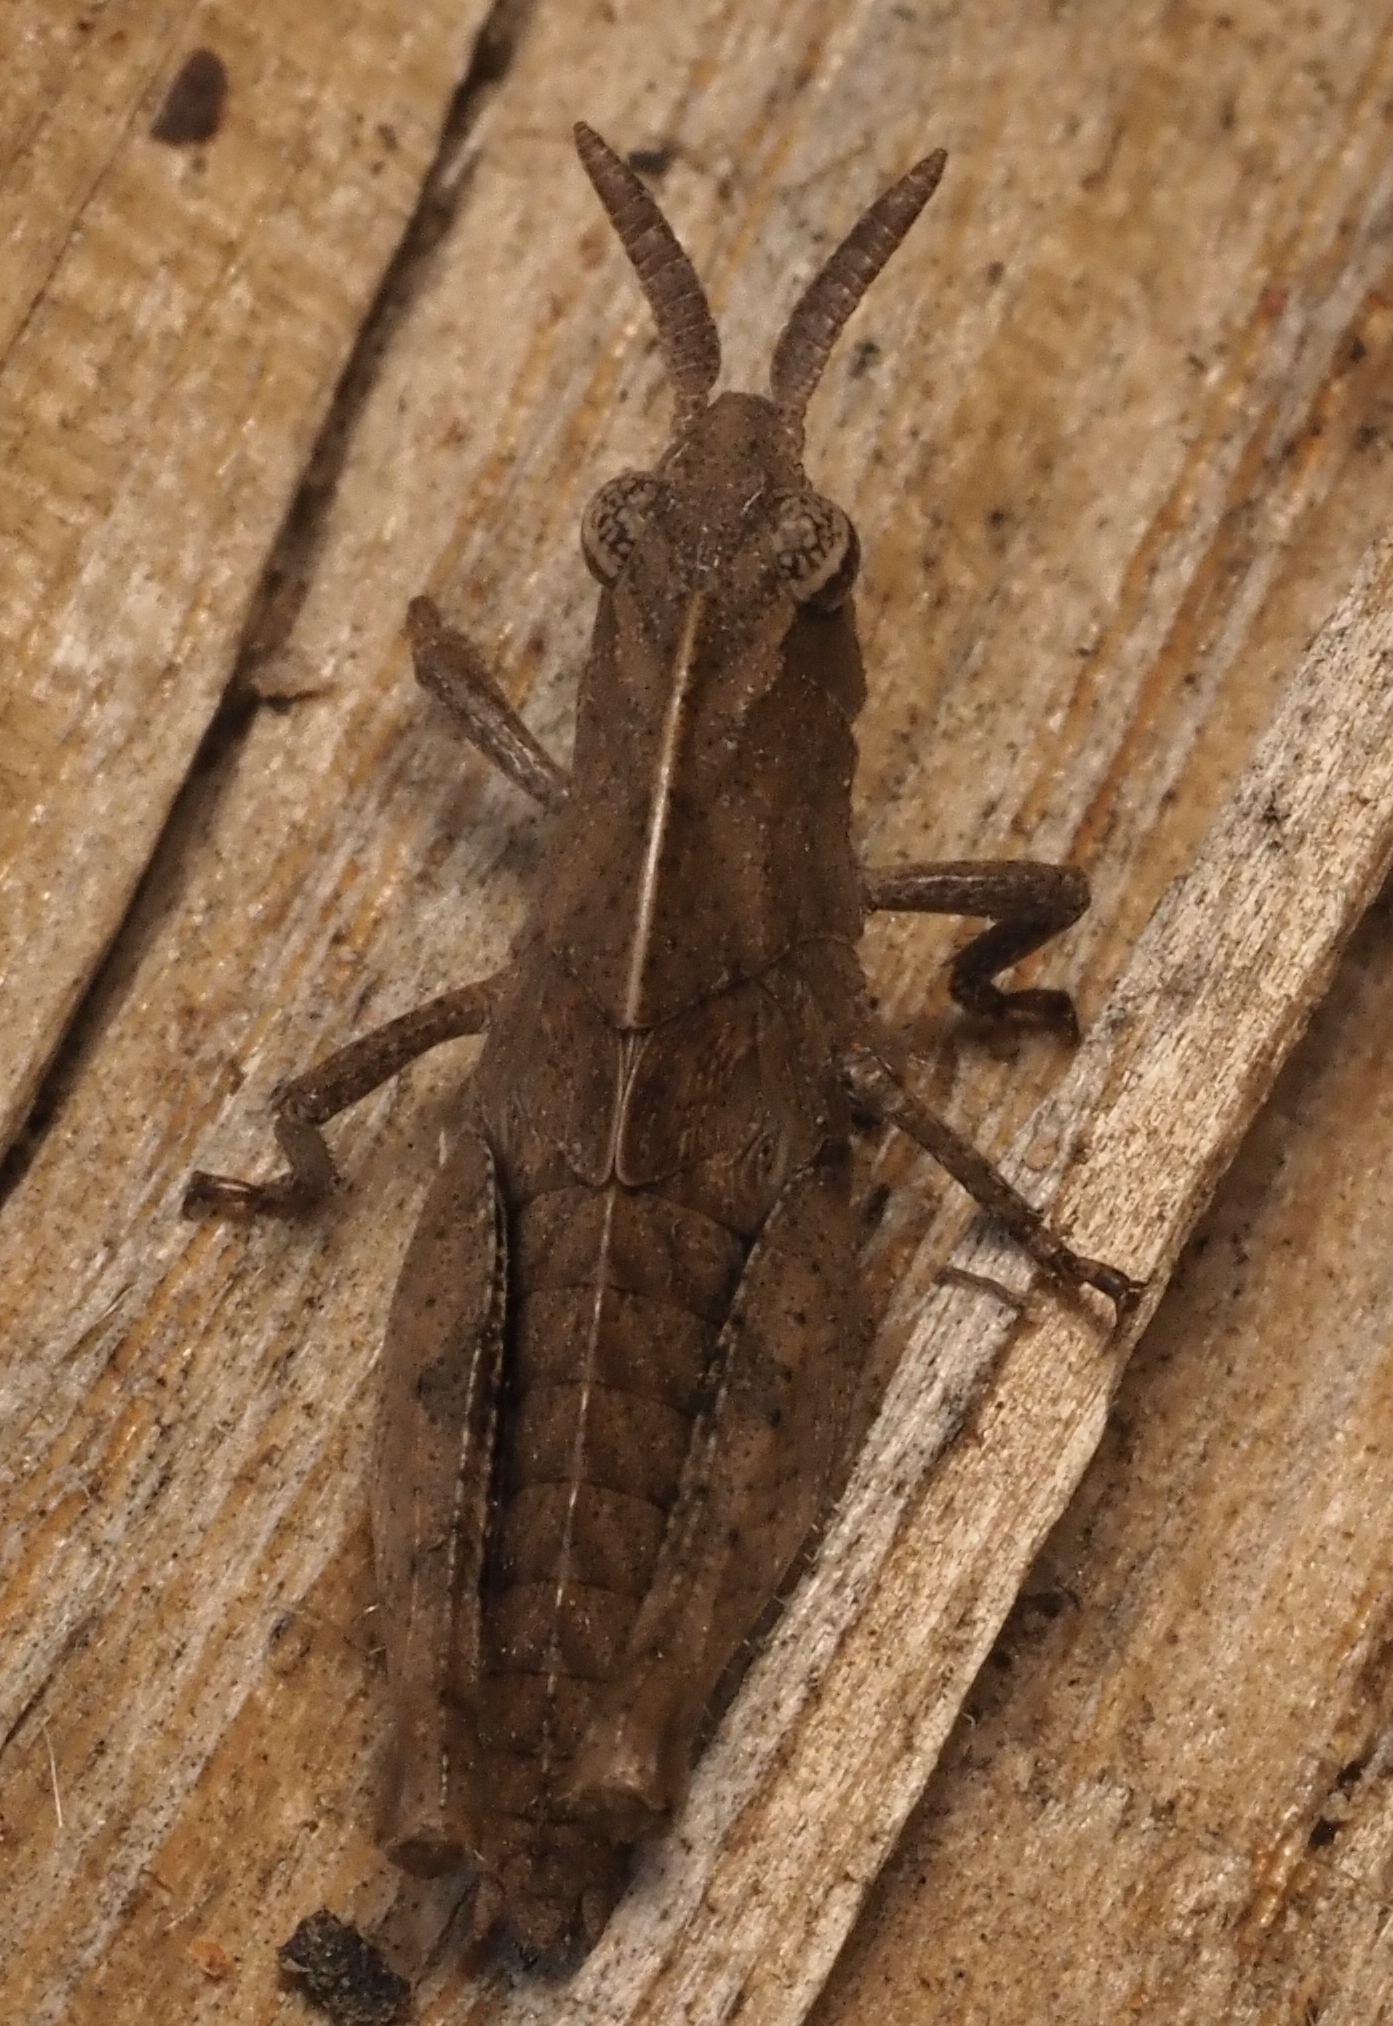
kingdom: Animalia
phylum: Arthropoda
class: Insecta
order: Orthoptera
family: Acrididae
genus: Chortophaga
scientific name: Chortophaga viridifasciata
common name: Green-striped grasshopper
